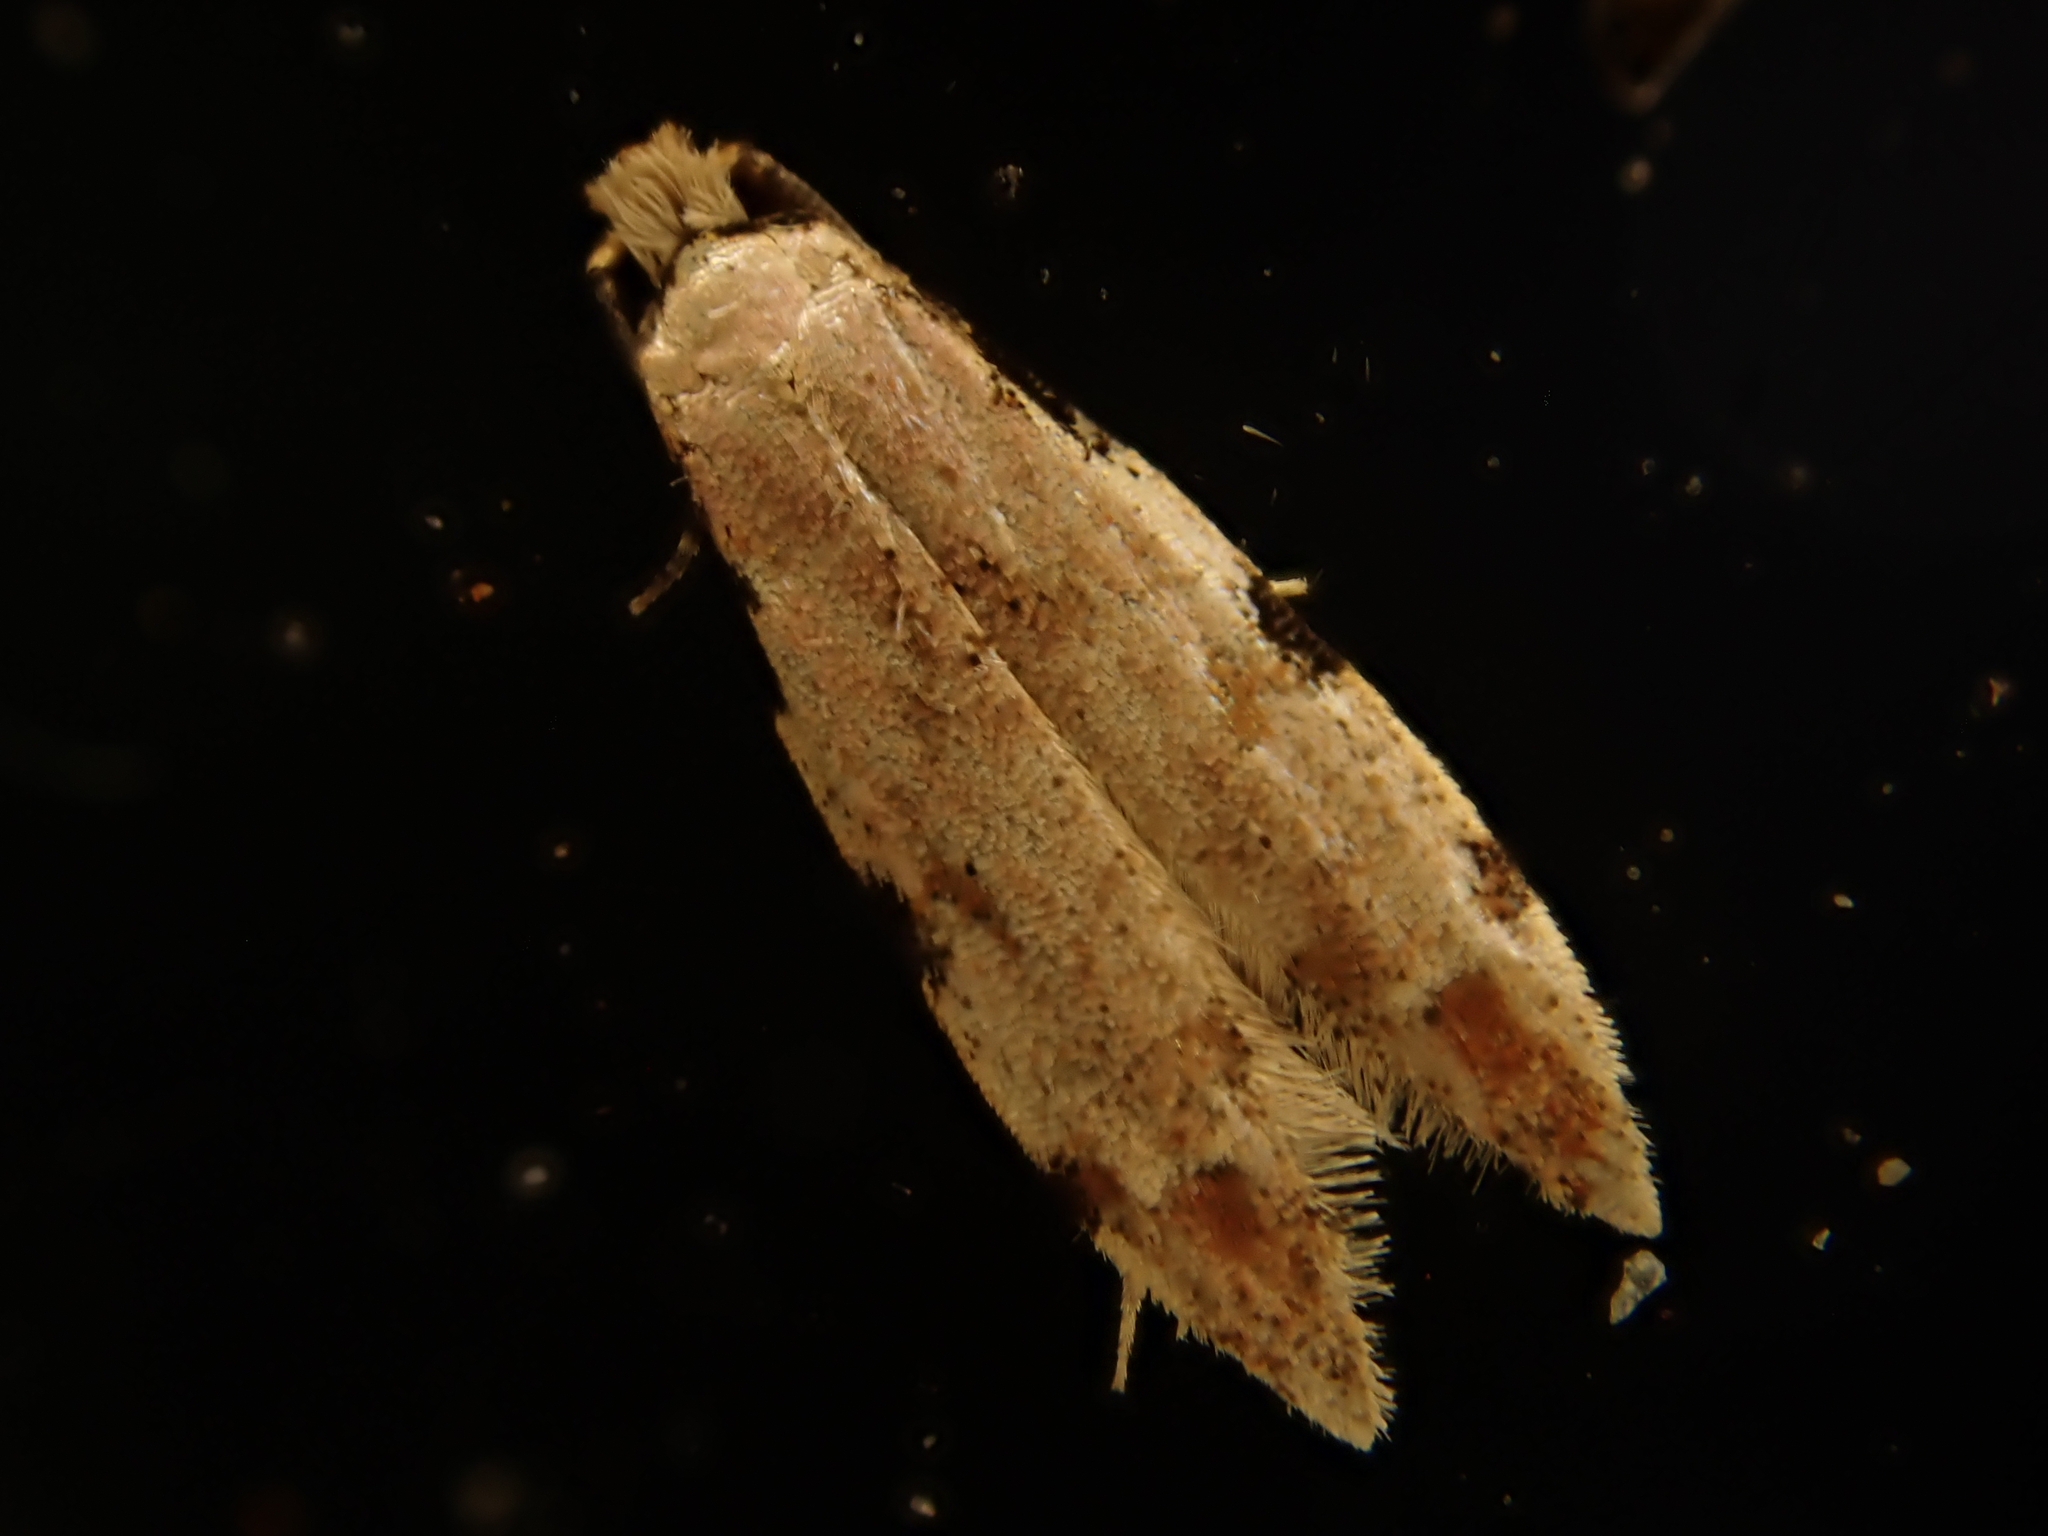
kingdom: Animalia
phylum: Arthropoda
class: Insecta
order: Lepidoptera
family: Tineidae
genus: Endophthora
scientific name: Endophthora omogramma
